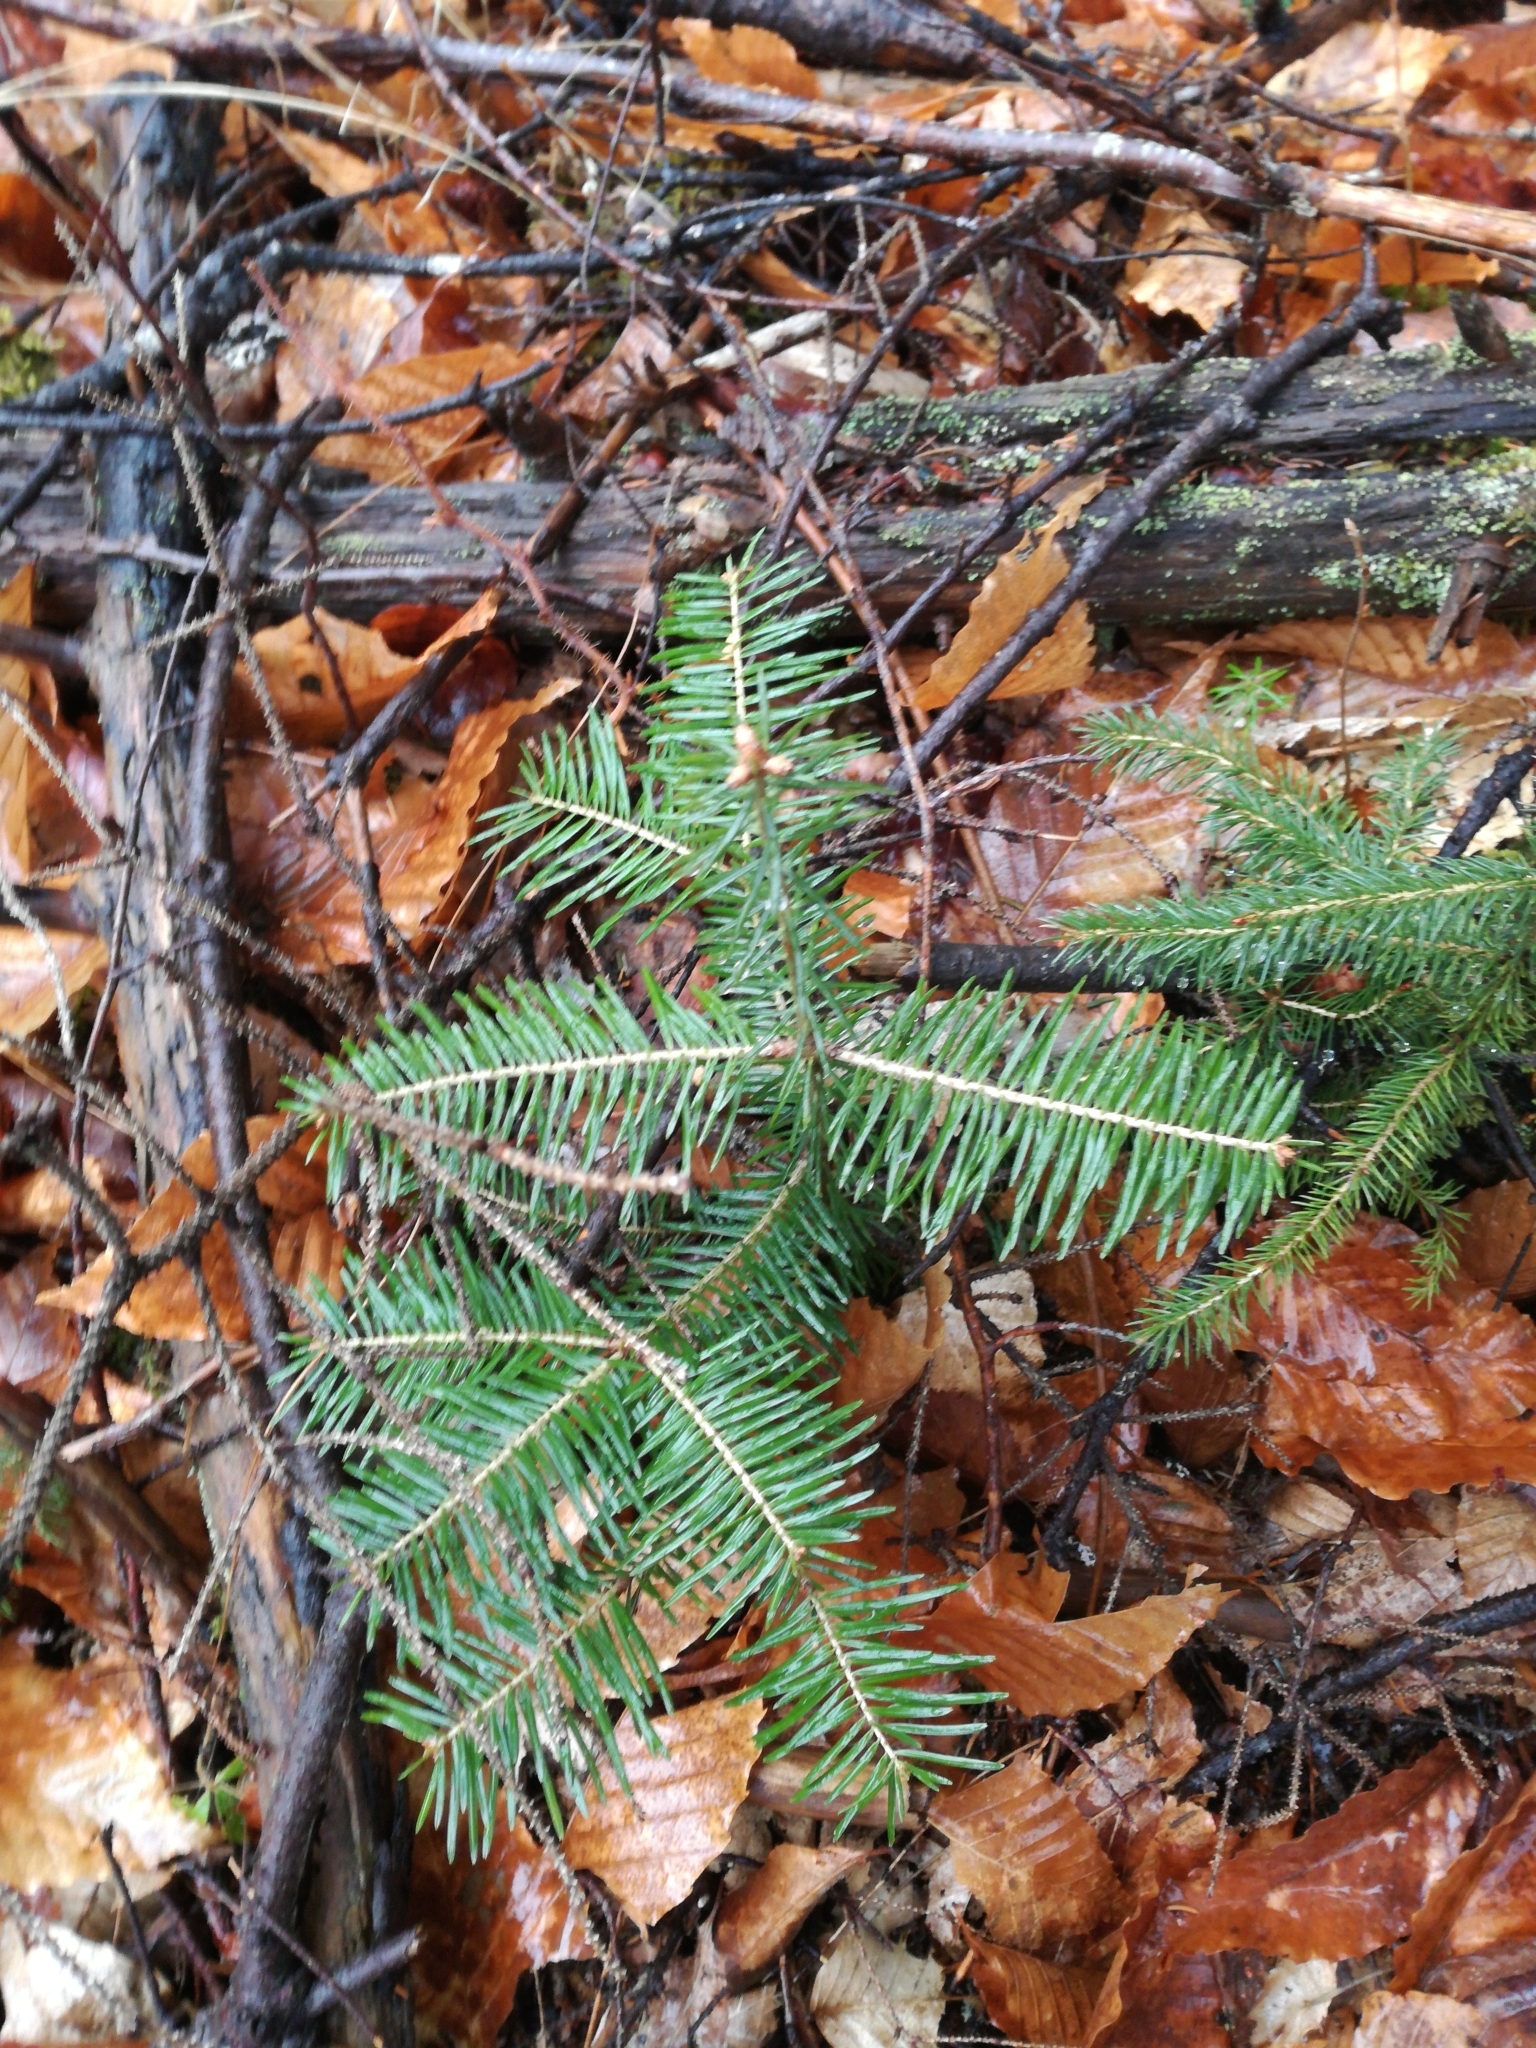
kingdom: Plantae
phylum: Tracheophyta
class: Pinopsida
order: Pinales
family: Pinaceae
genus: Abies
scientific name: Abies balsamea
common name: Balsam fir
